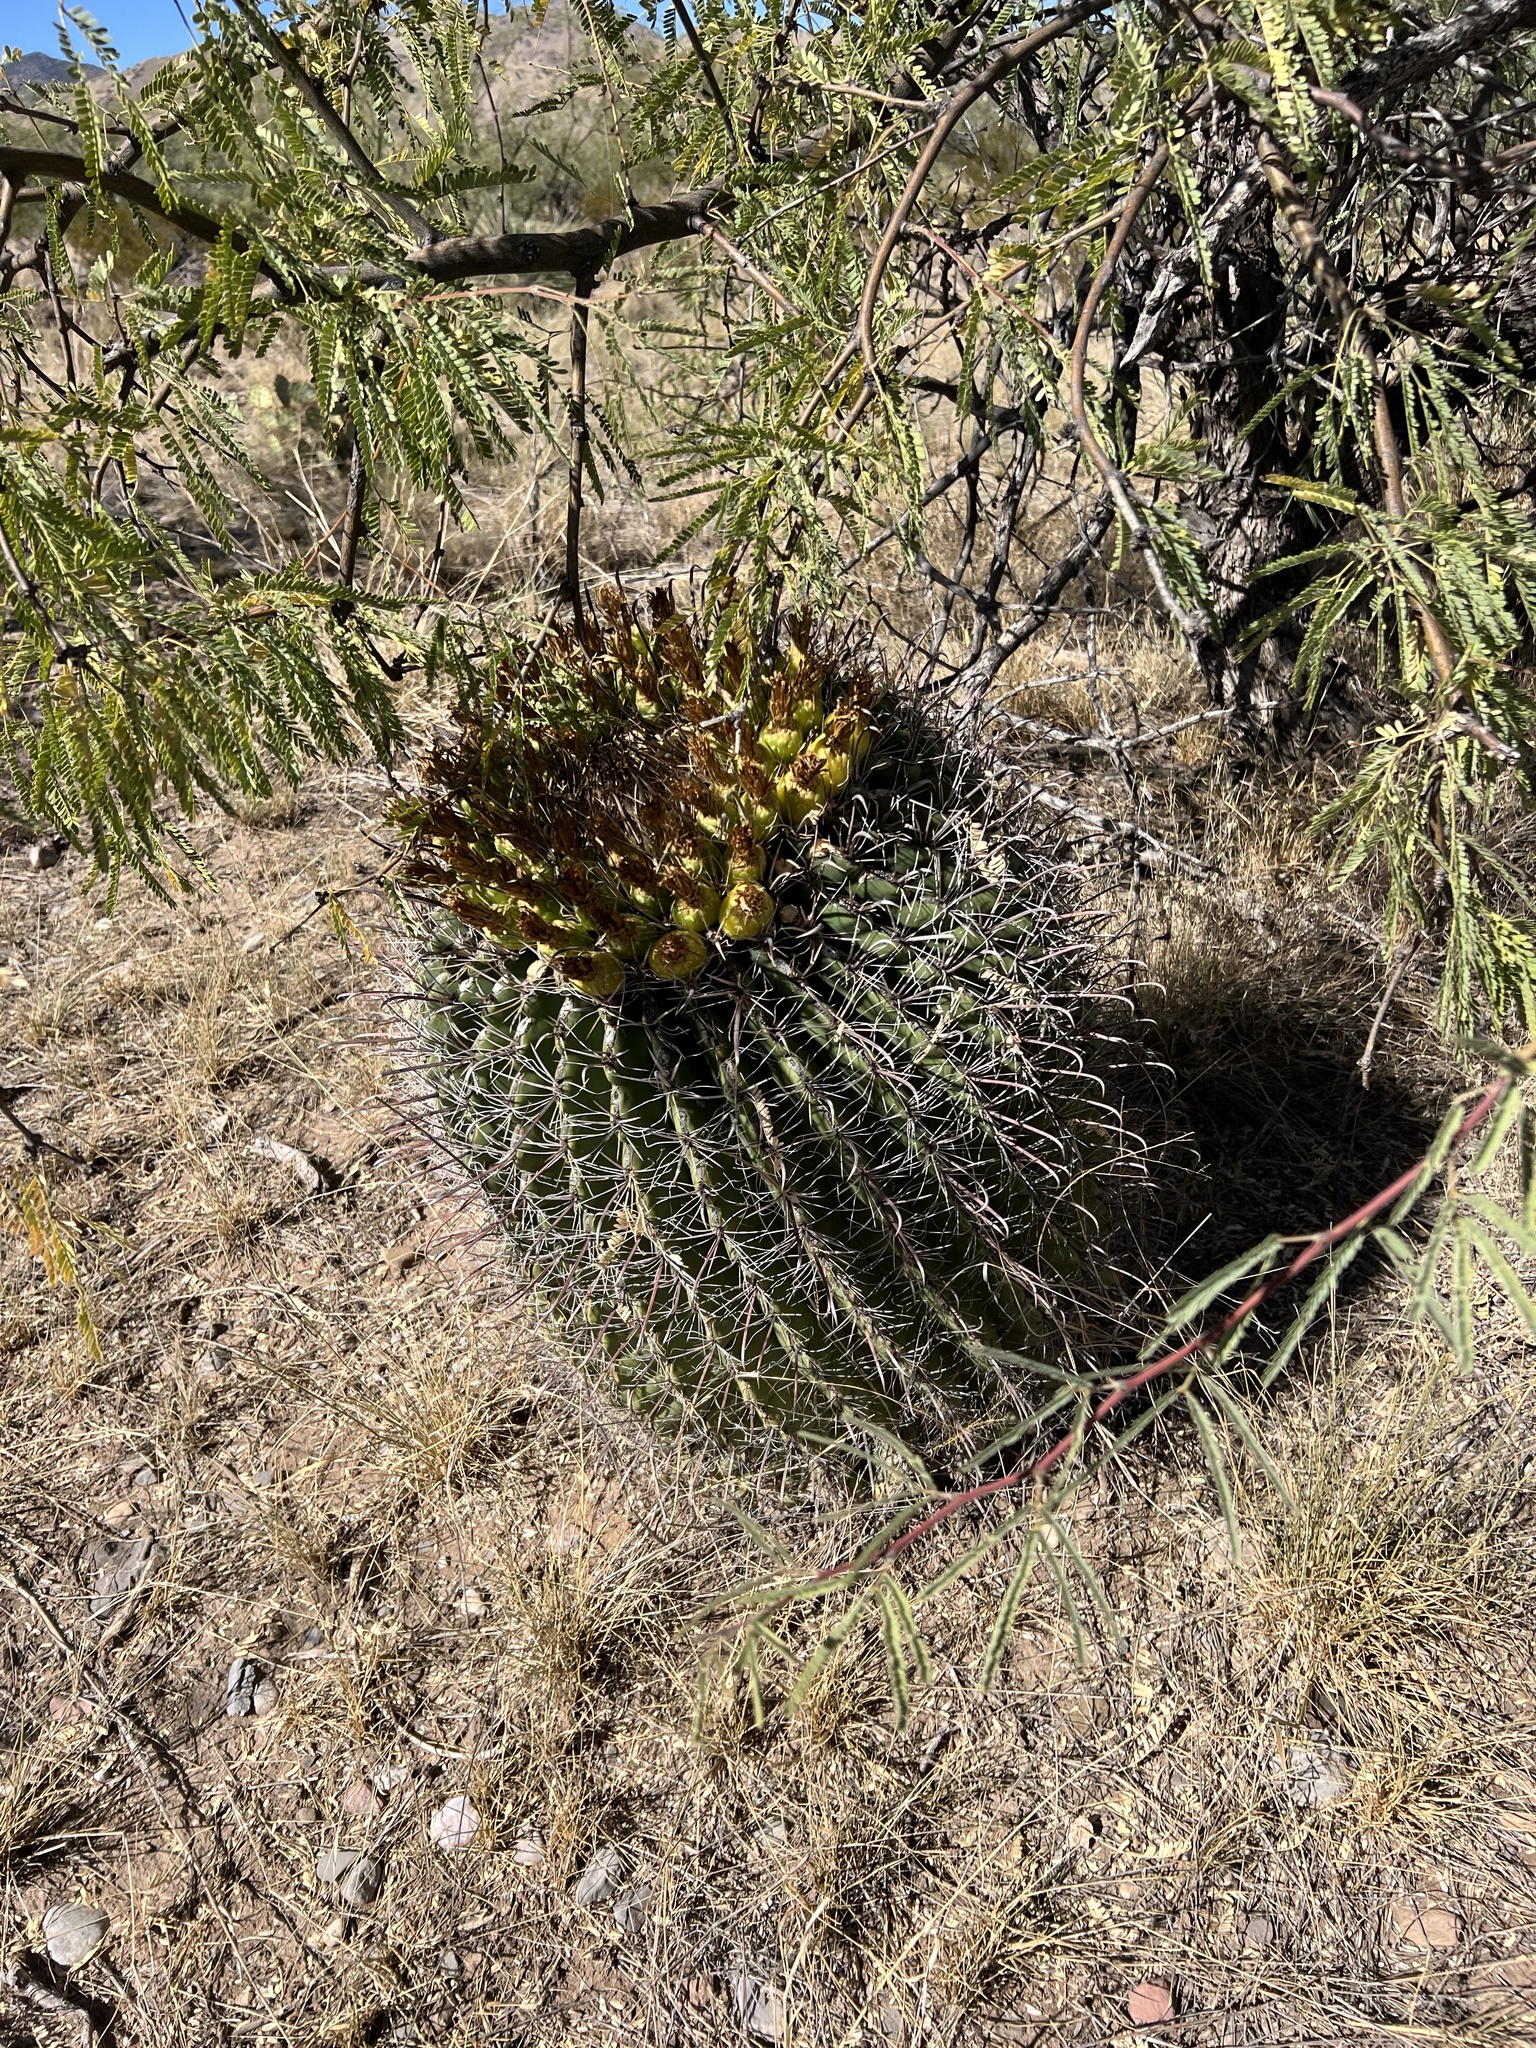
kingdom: Plantae
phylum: Tracheophyta
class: Magnoliopsida
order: Caryophyllales
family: Cactaceae
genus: Ferocactus
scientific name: Ferocactus wislizeni
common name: Candy barrel cactus
